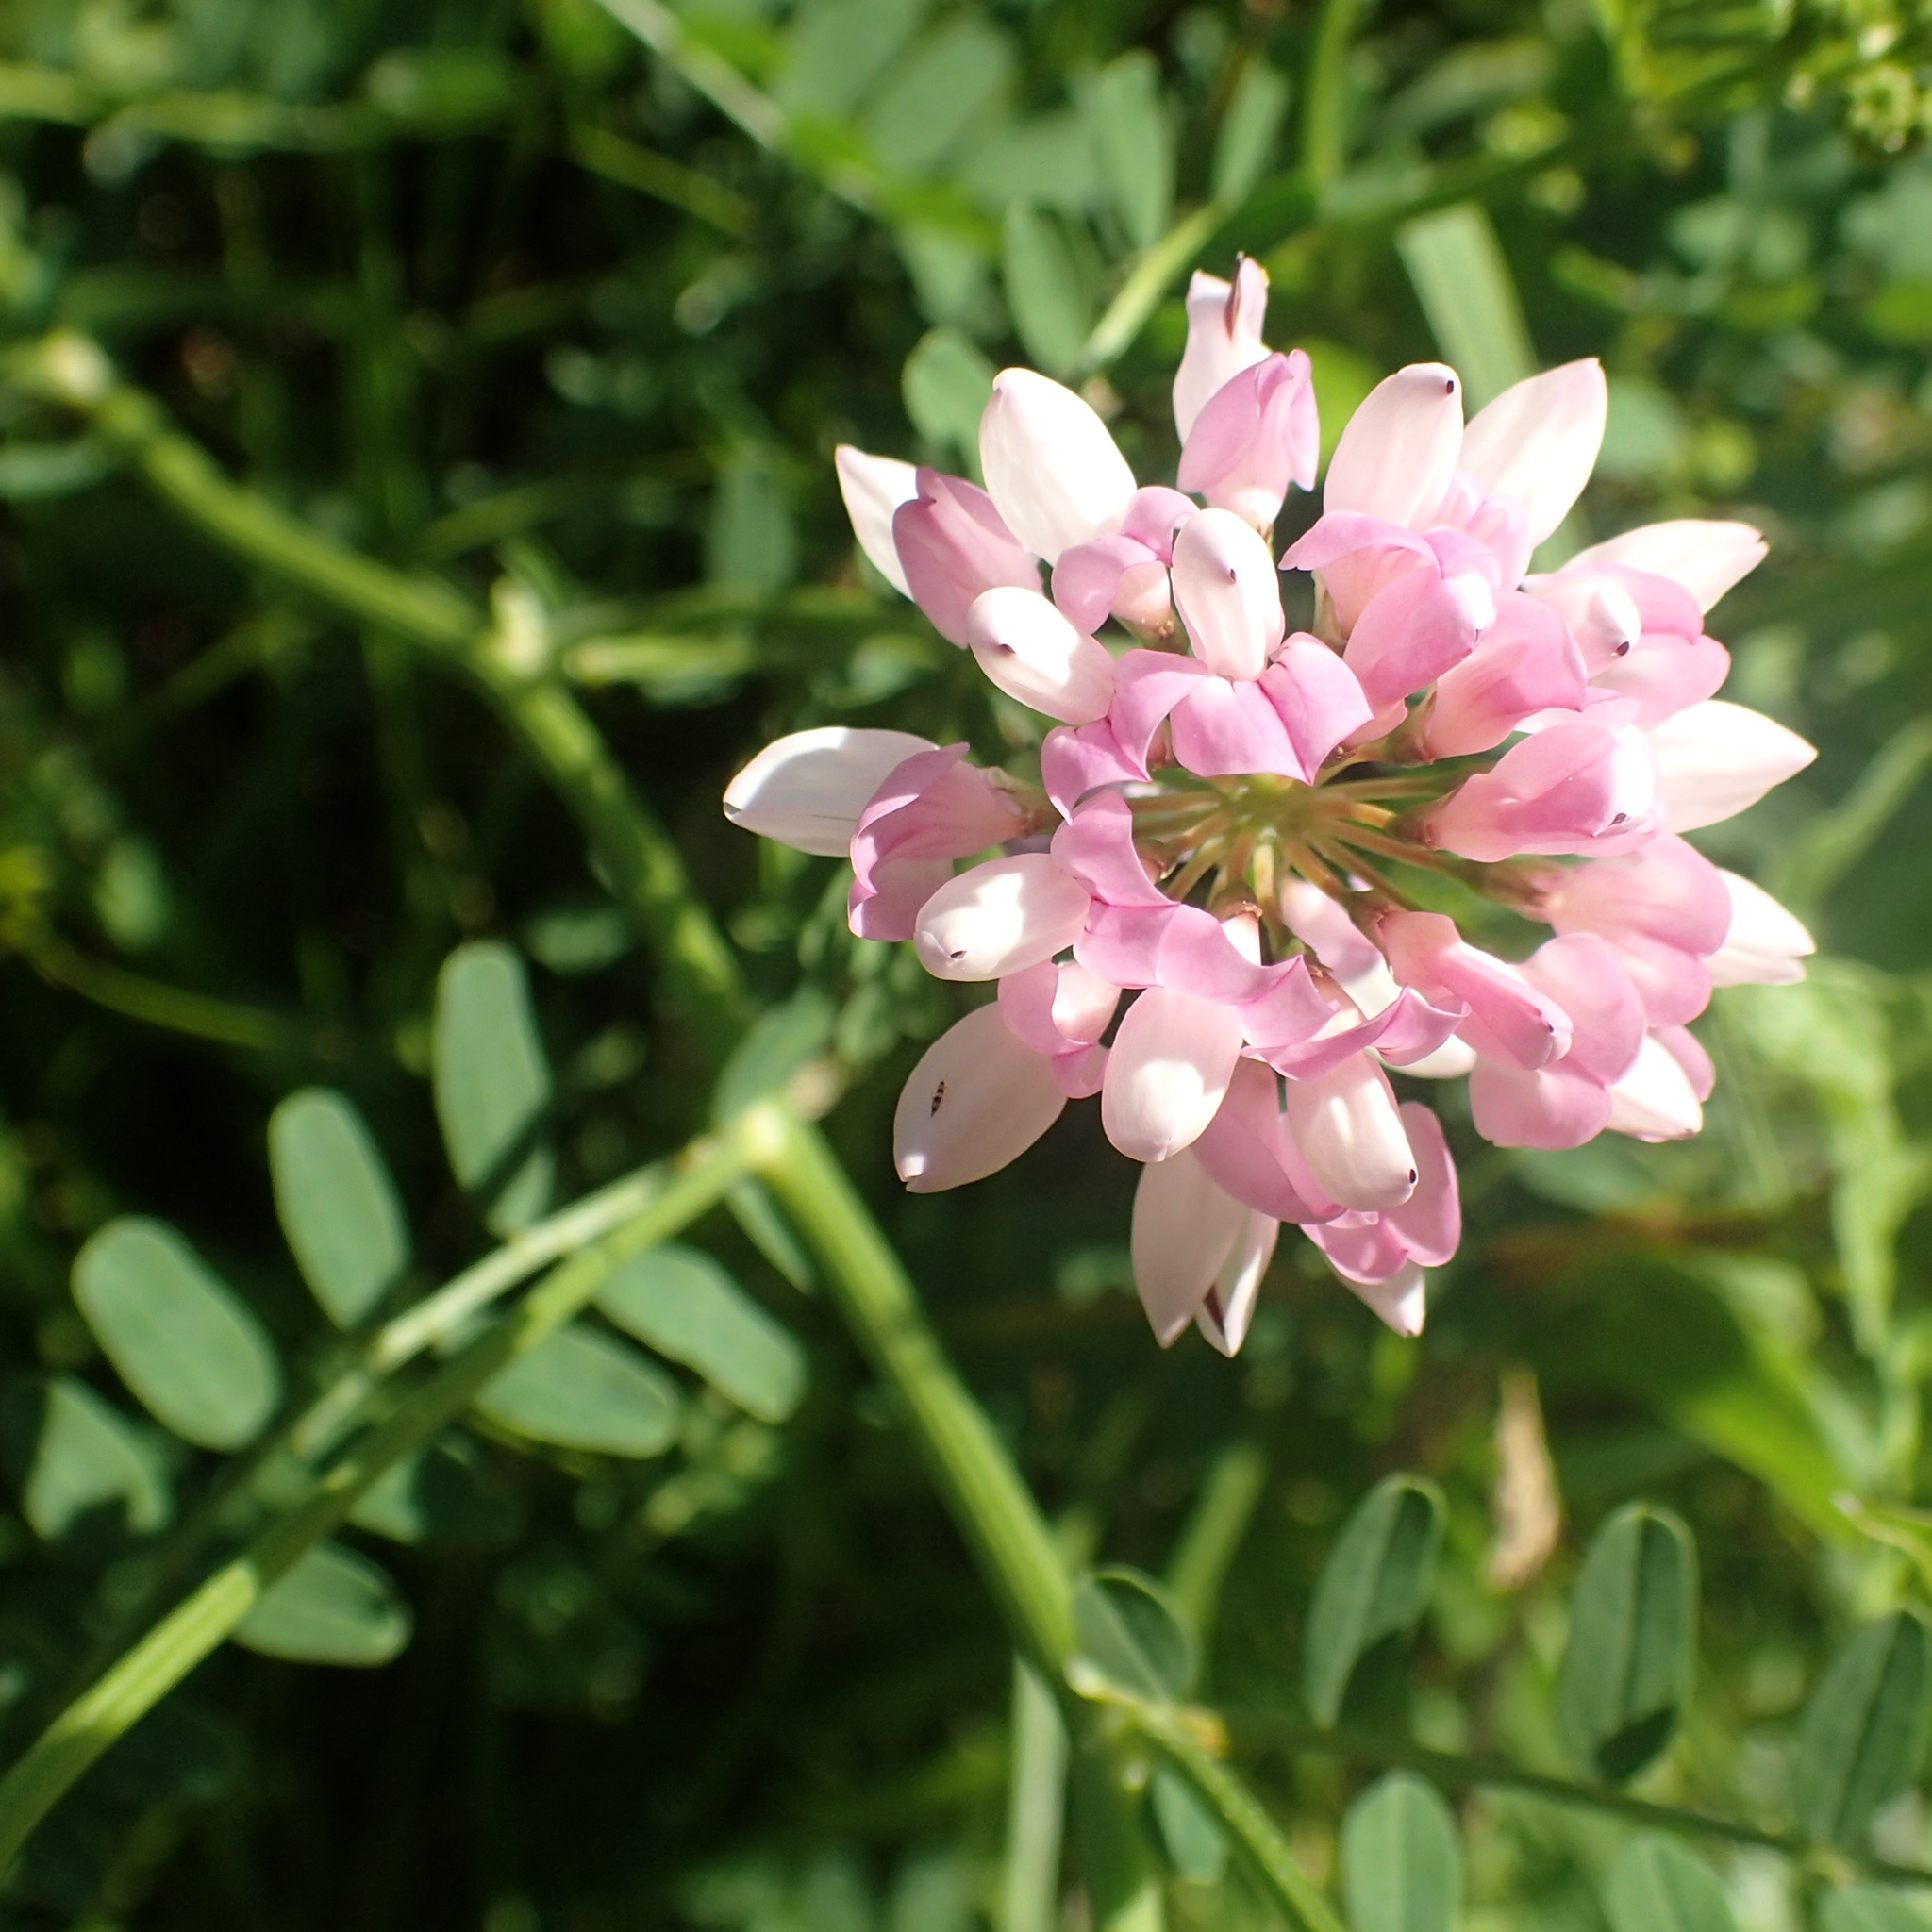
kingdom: Plantae
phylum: Tracheophyta
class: Magnoliopsida
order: Fabales
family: Fabaceae
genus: Coronilla
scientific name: Coronilla varia
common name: Crownvetch
